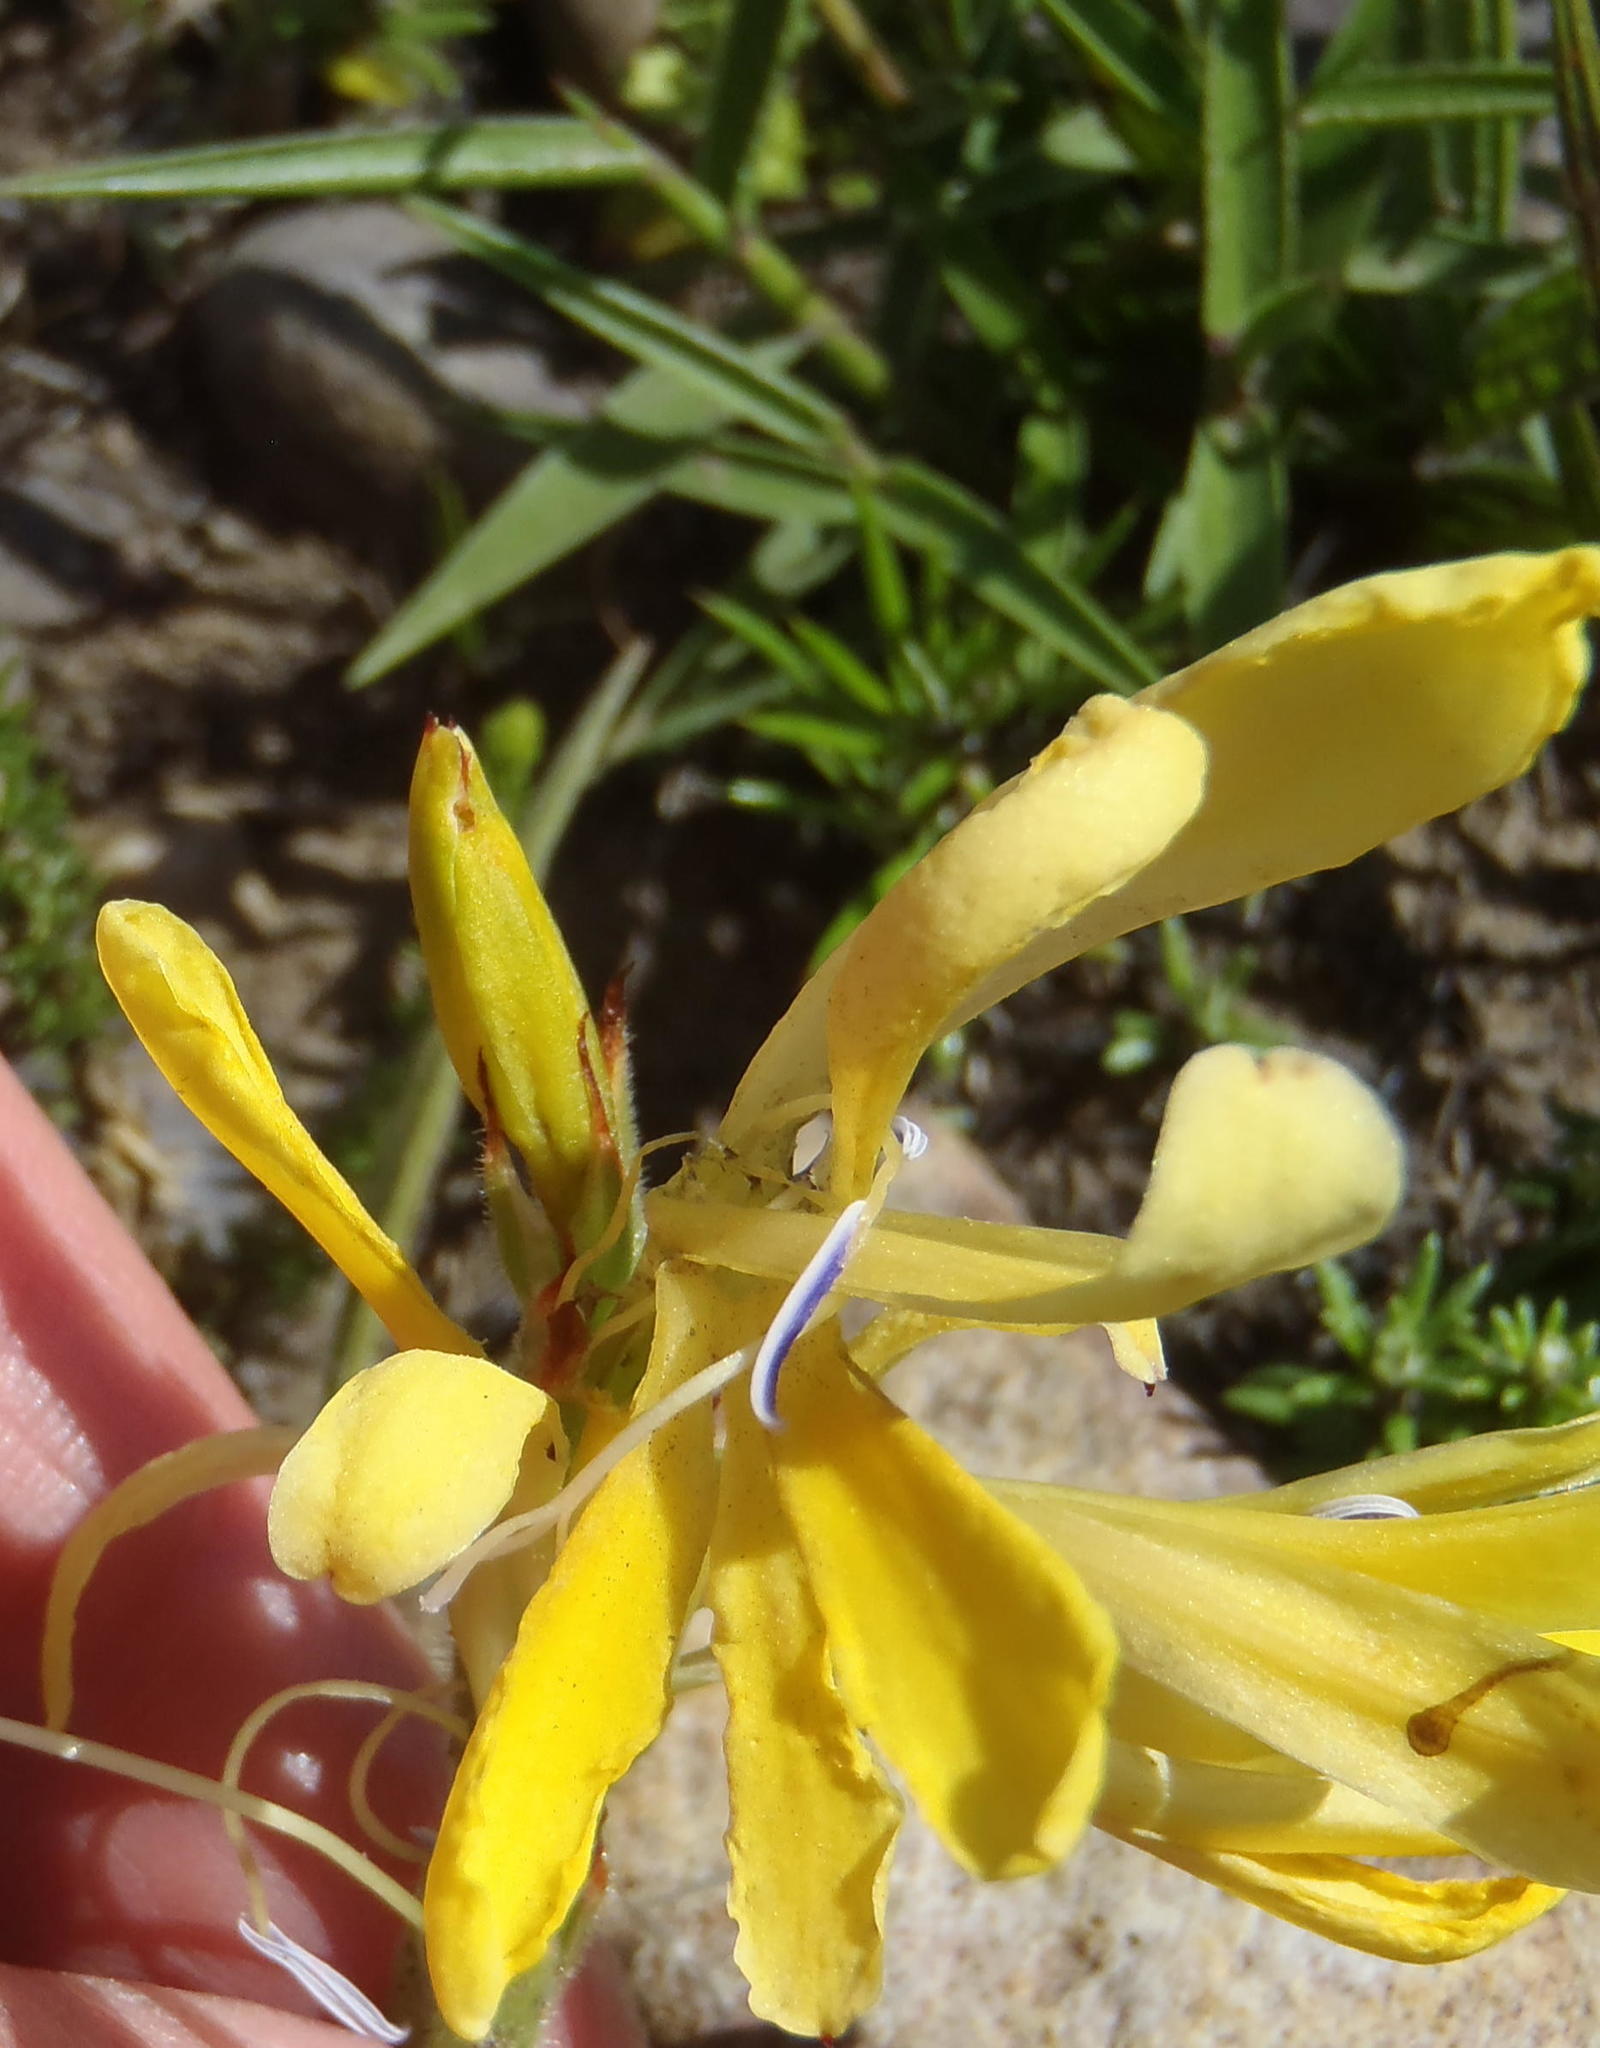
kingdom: Plantae
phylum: Tracheophyta
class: Liliopsida
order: Asparagales
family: Iridaceae
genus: Babiana
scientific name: Babiana patula
